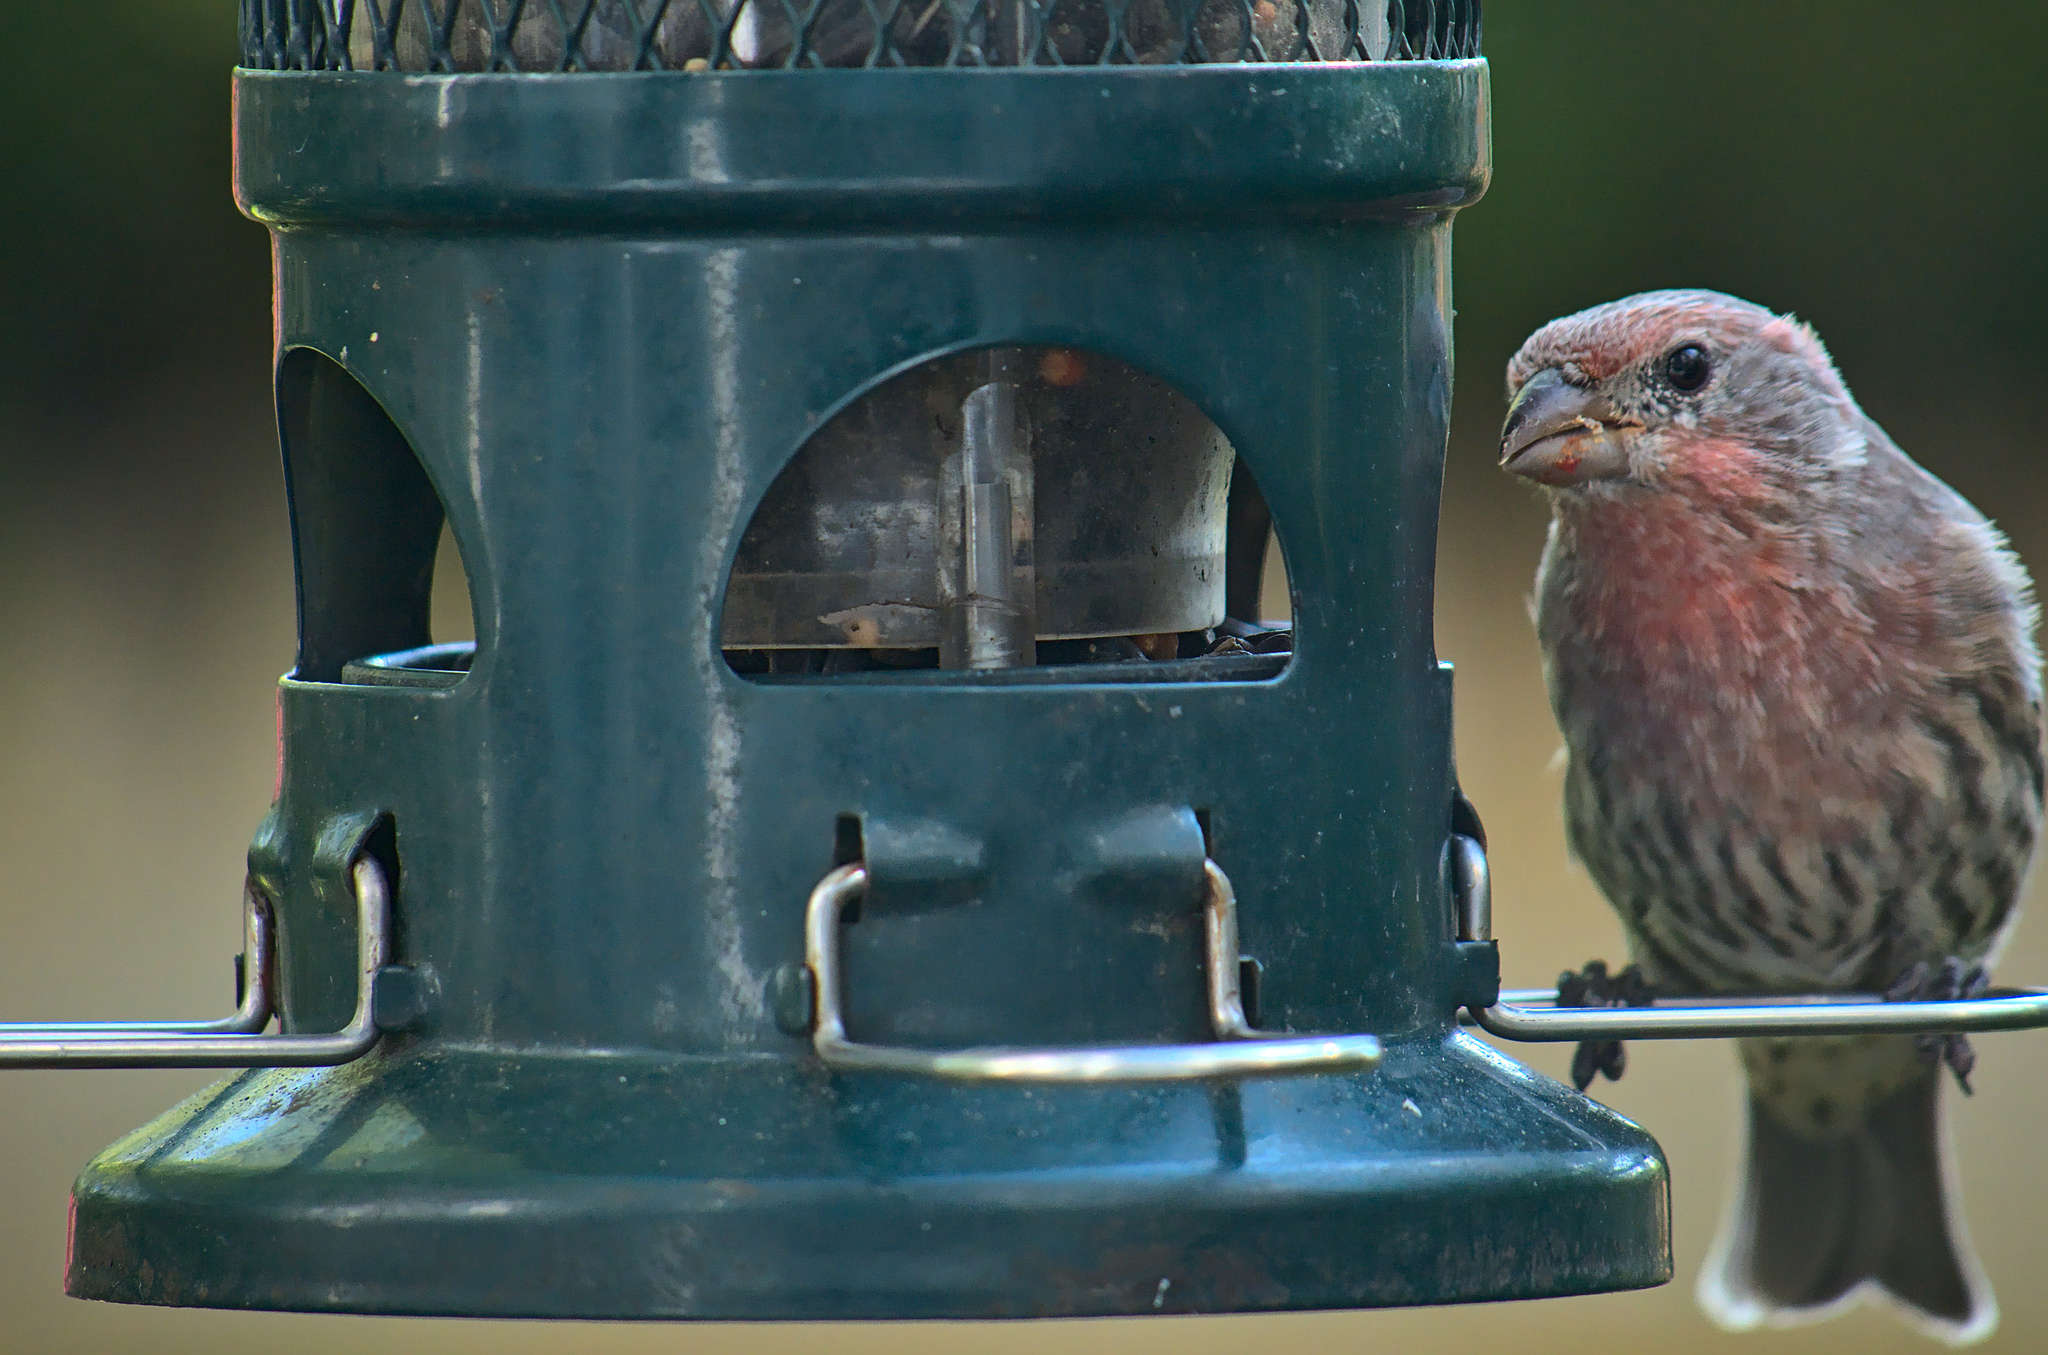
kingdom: Animalia
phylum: Chordata
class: Aves
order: Passeriformes
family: Fringillidae
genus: Haemorhous
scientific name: Haemorhous mexicanus
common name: House finch
